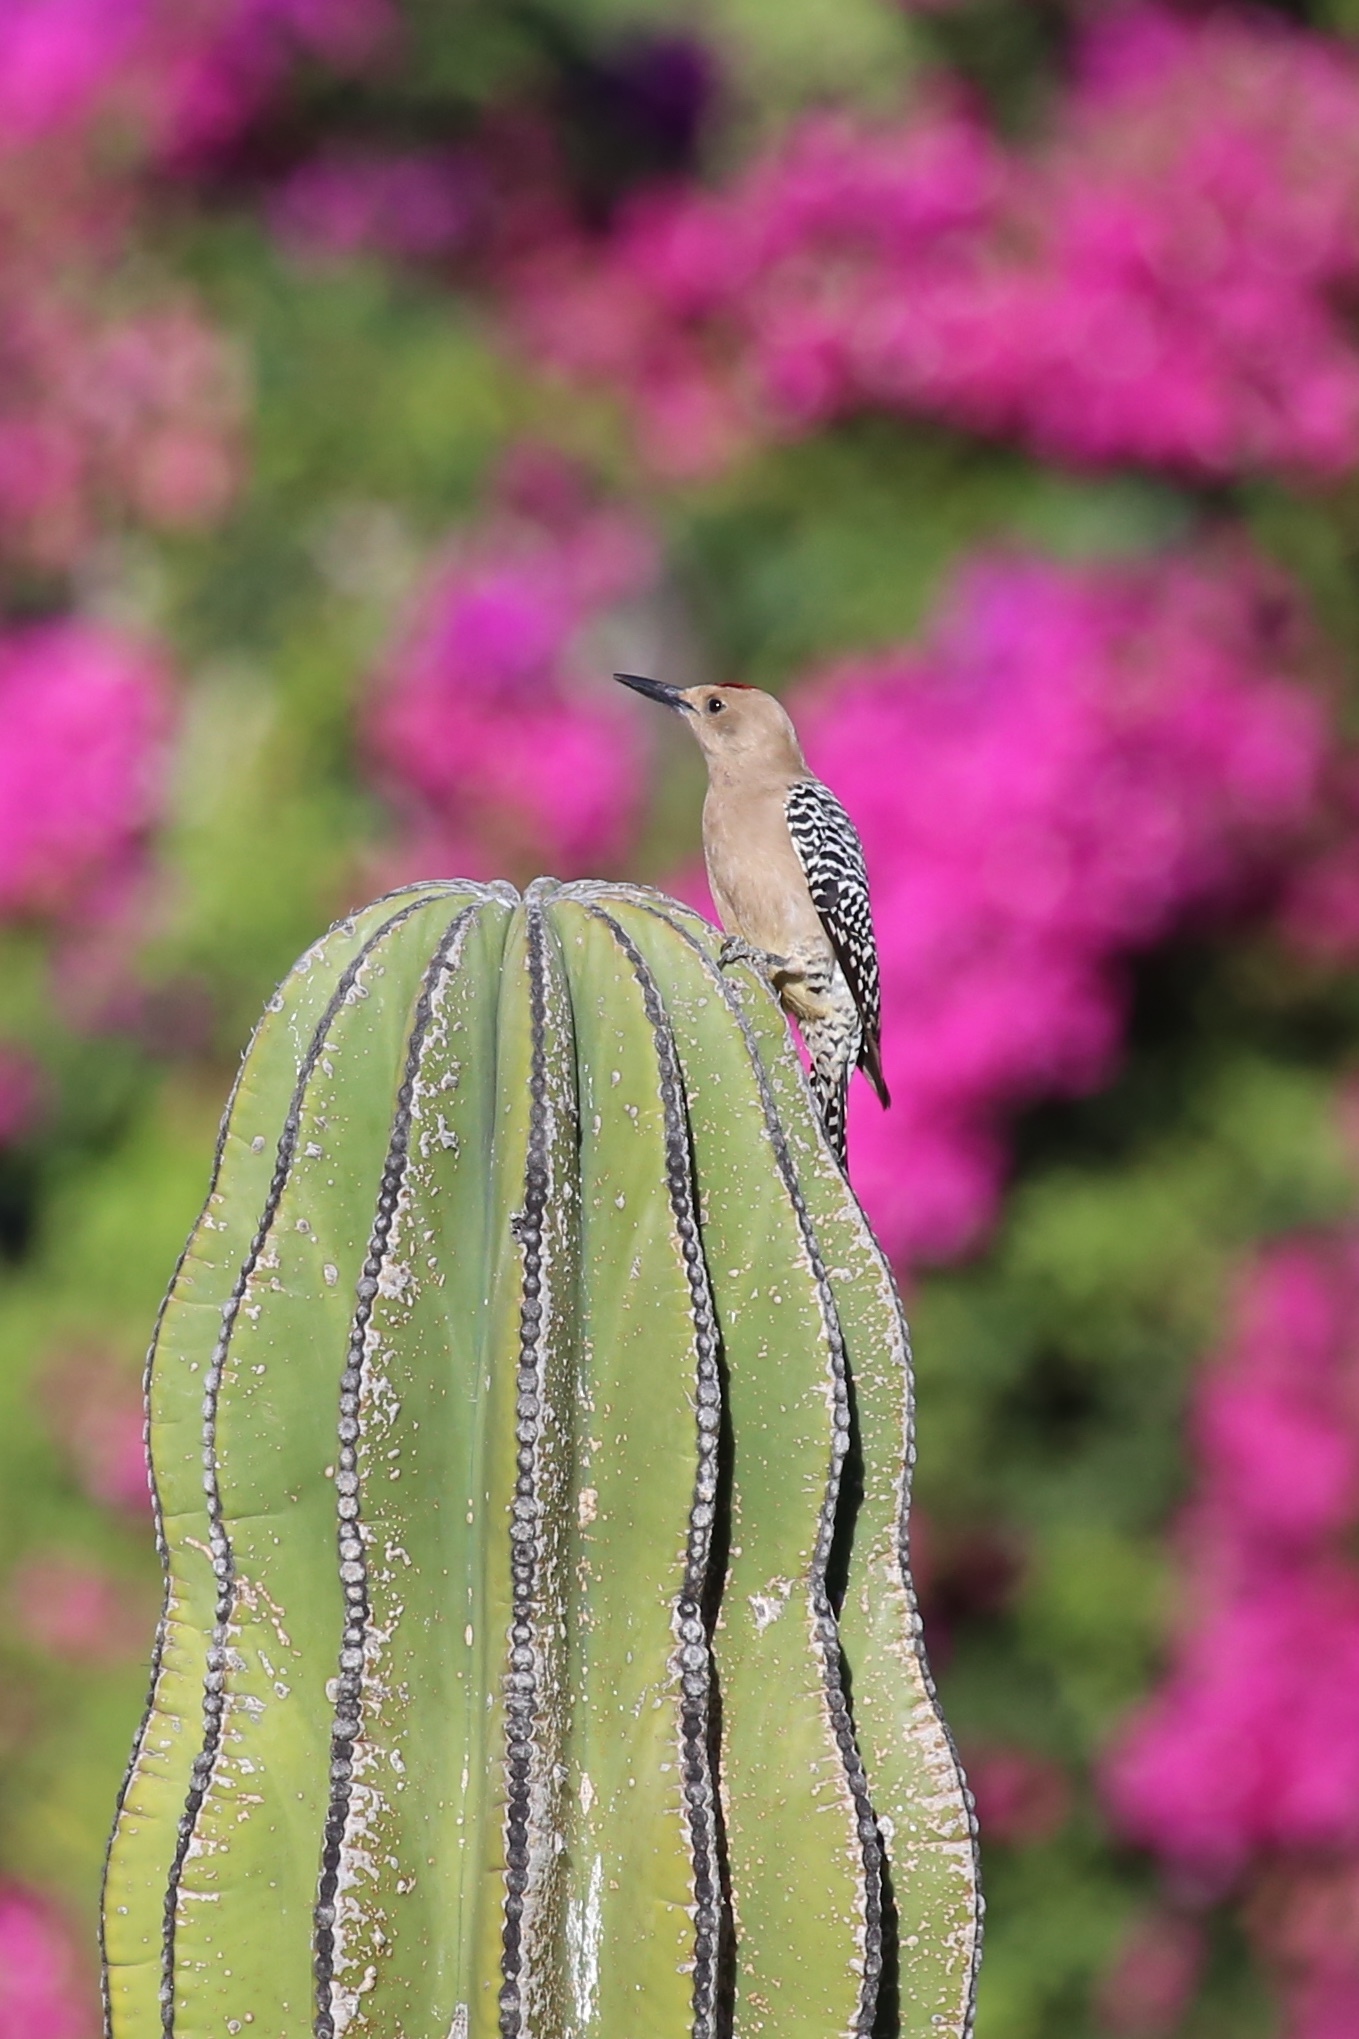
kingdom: Animalia
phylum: Chordata
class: Aves
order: Piciformes
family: Picidae
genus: Melanerpes
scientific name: Melanerpes uropygialis
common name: Gila woodpecker
